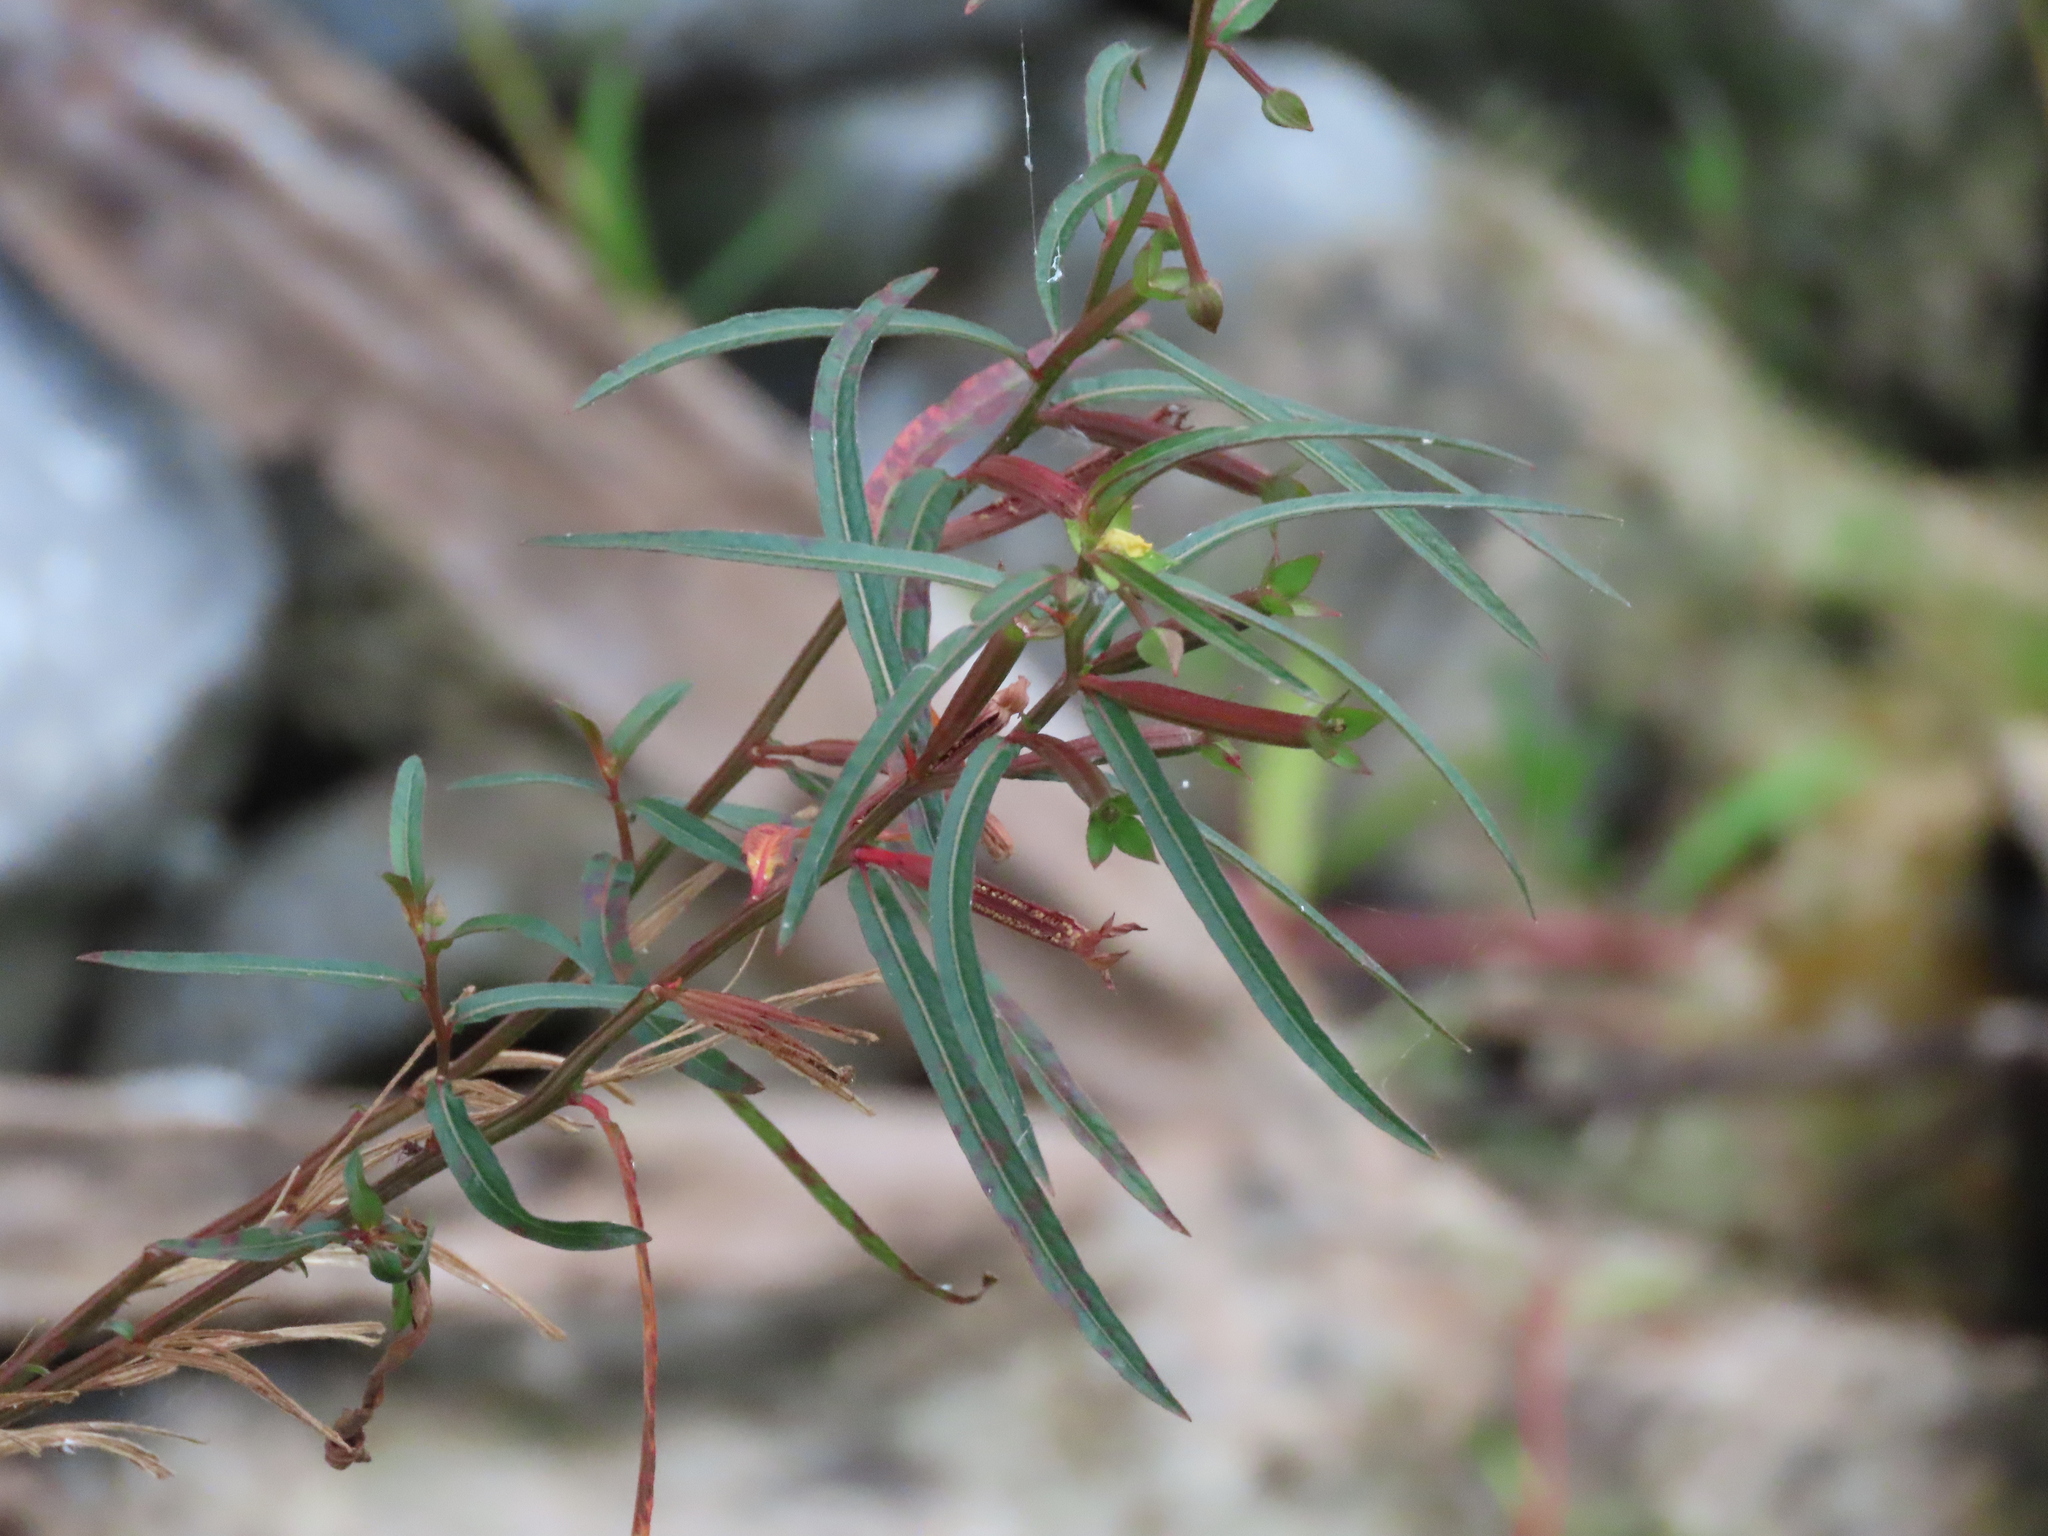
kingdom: Plantae
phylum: Tracheophyta
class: Magnoliopsida
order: Myrtales
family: Onagraceae
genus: Ludwigia
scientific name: Ludwigia octovalvis
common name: Water-primrose
